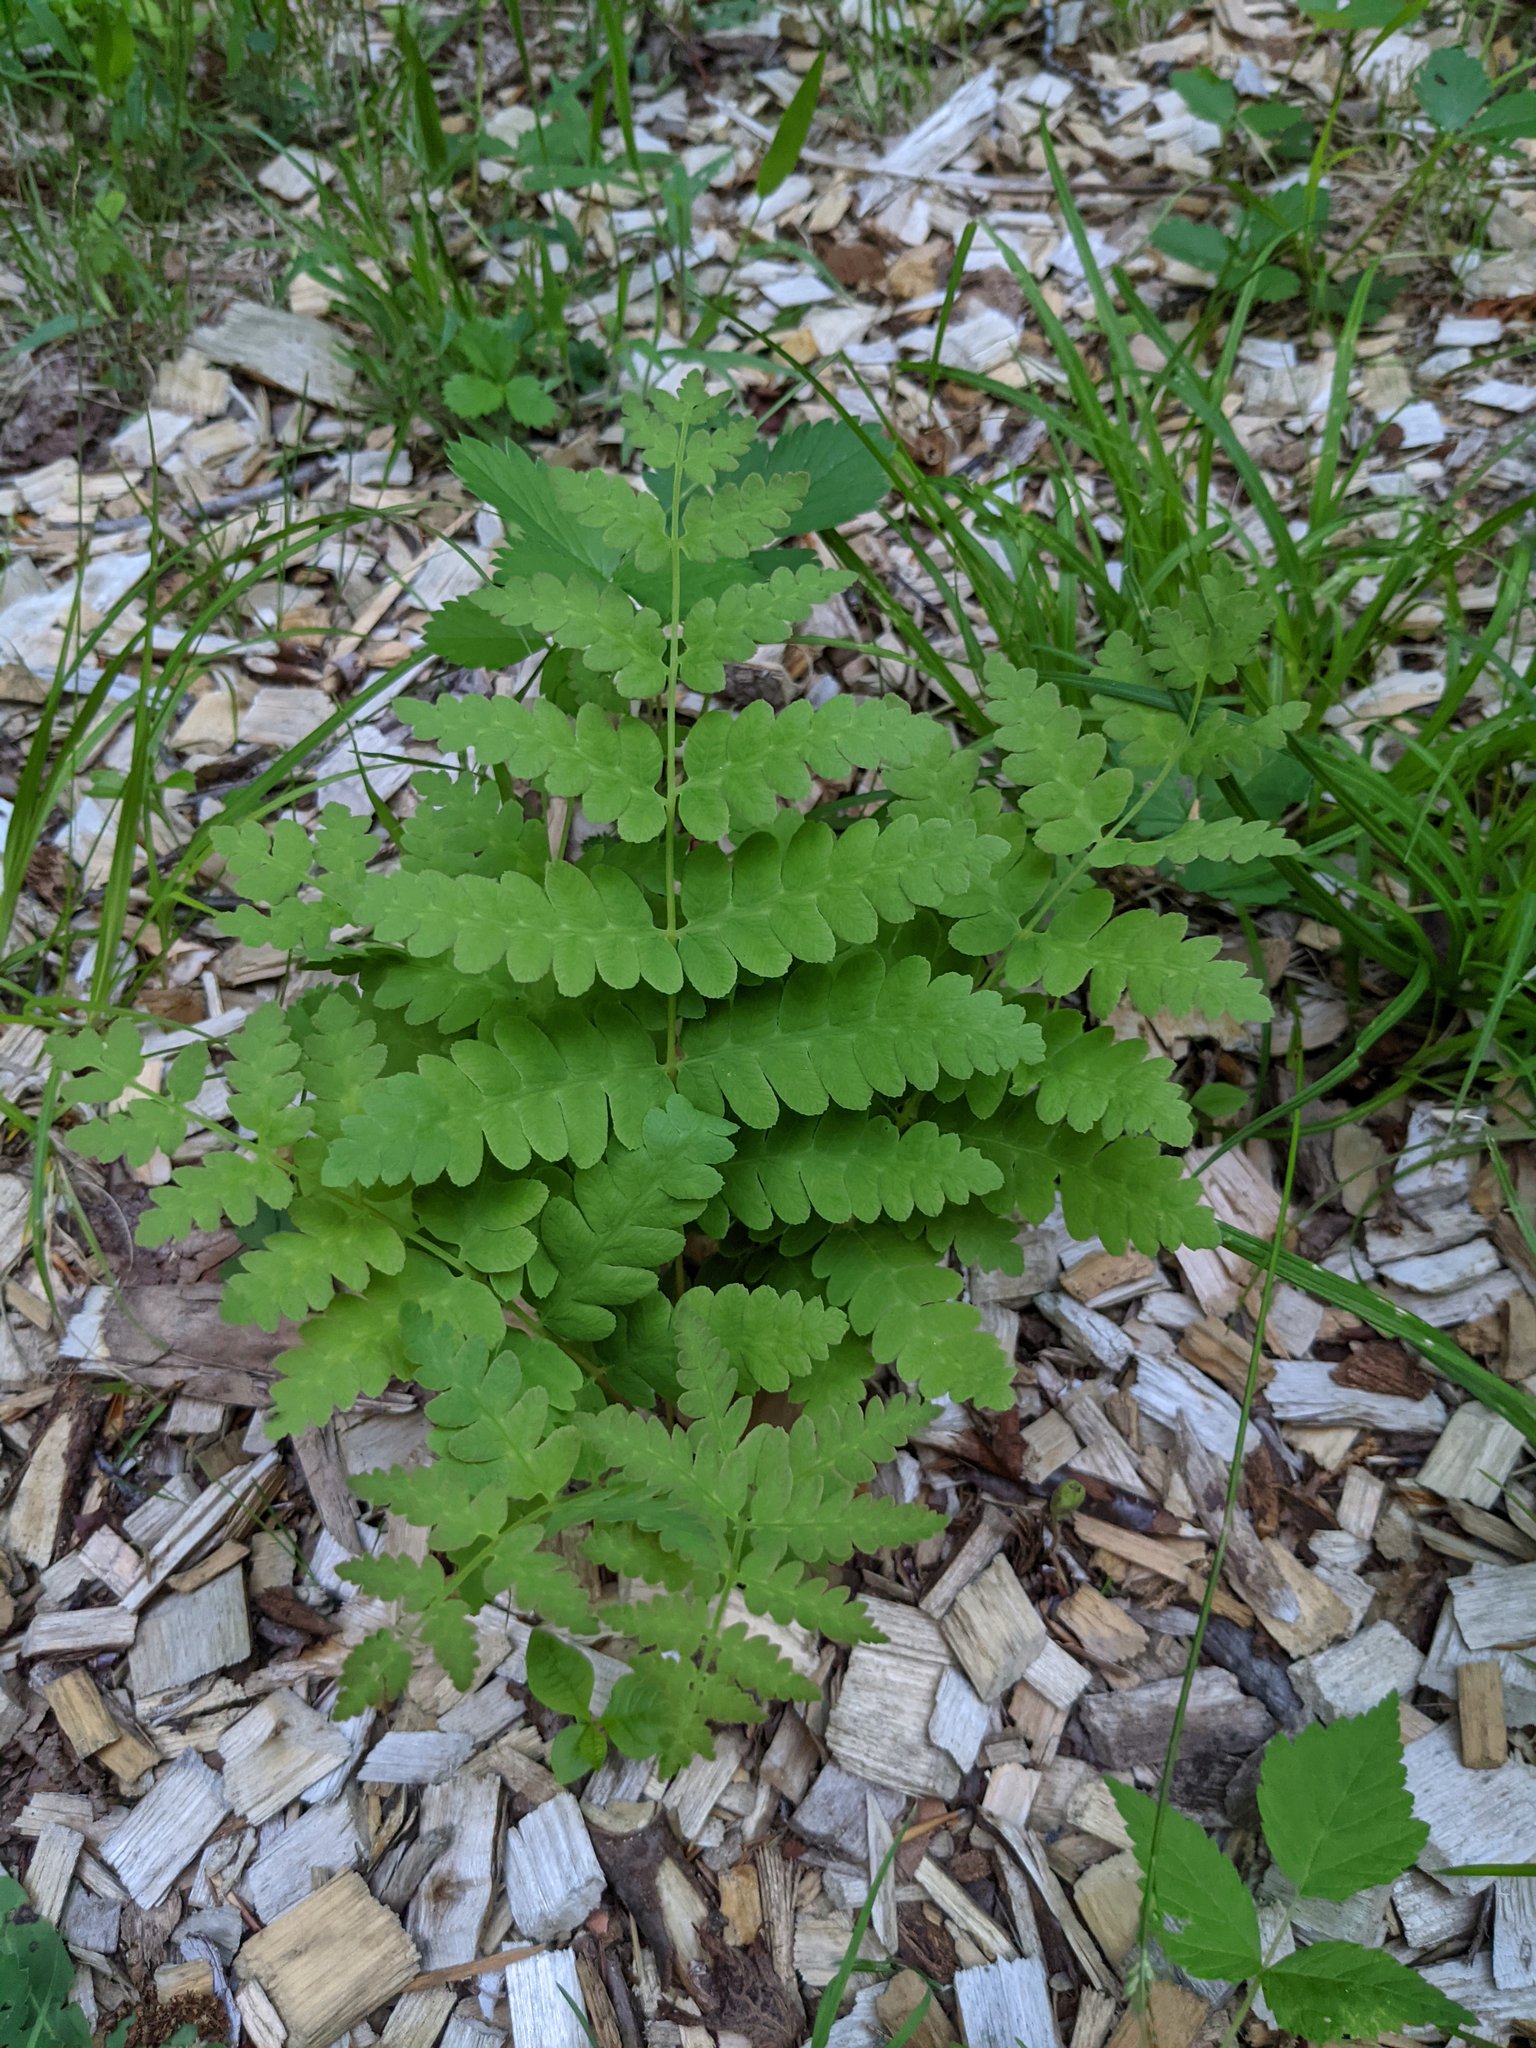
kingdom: Plantae
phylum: Tracheophyta
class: Polypodiopsida
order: Osmundales
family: Osmundaceae
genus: Claytosmunda
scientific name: Claytosmunda claytoniana
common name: Clayton's fern
